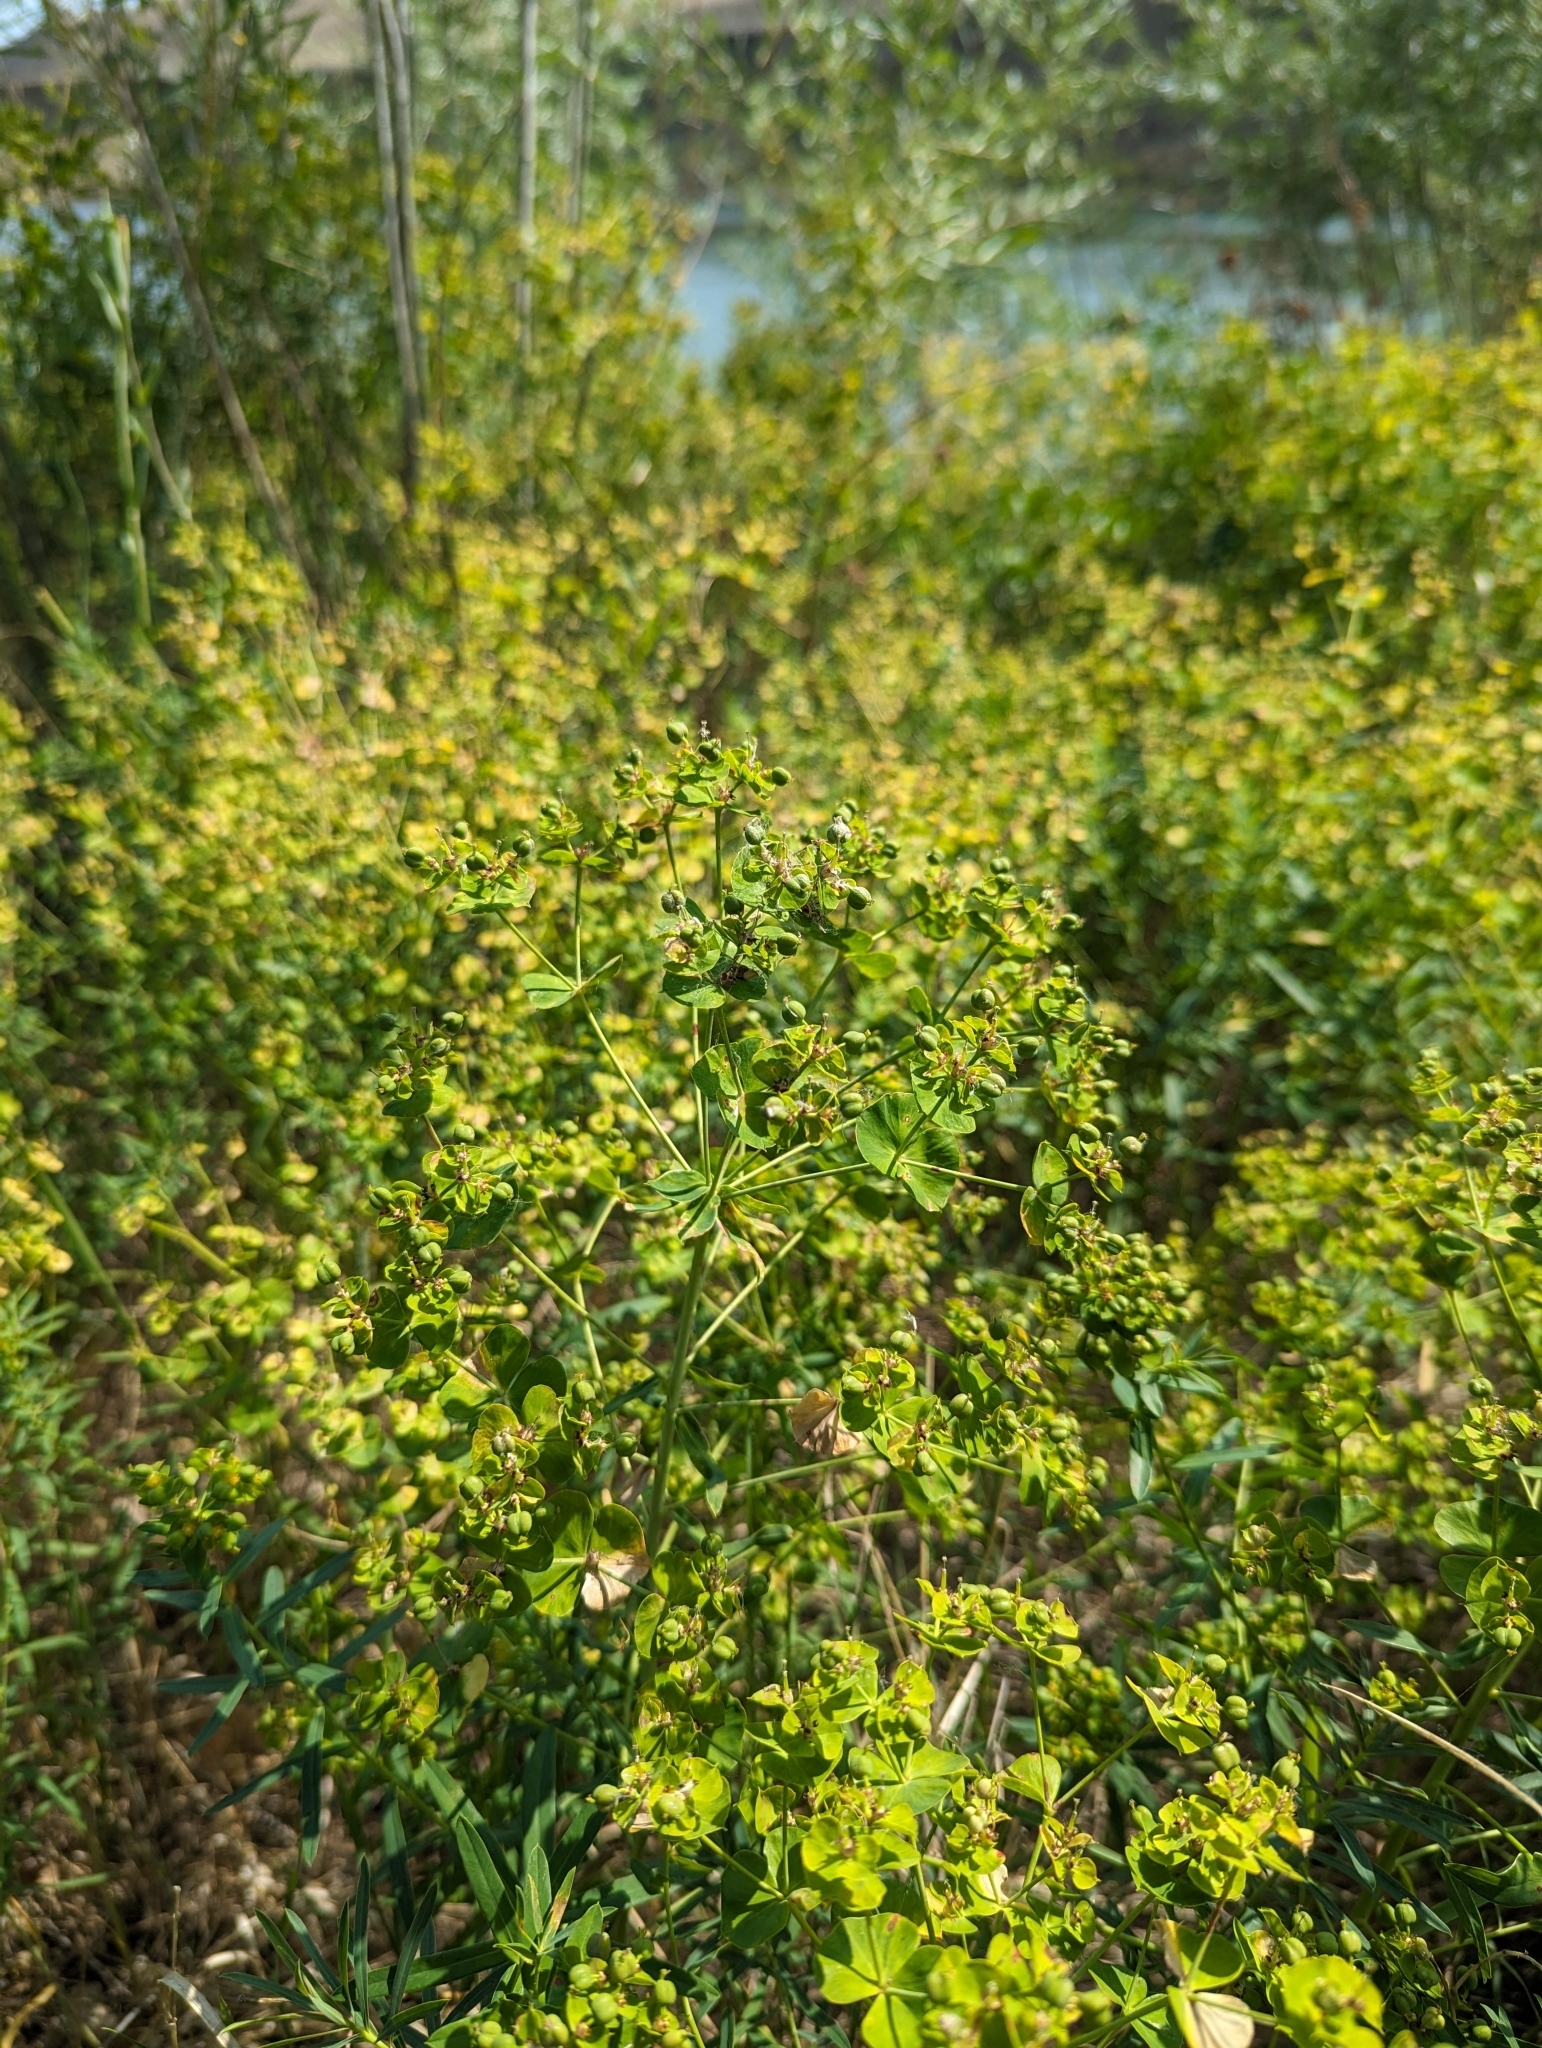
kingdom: Plantae
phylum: Tracheophyta
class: Magnoliopsida
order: Malpighiales
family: Euphorbiaceae
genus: Euphorbia
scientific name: Euphorbia virgata
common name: Leafy spurge
